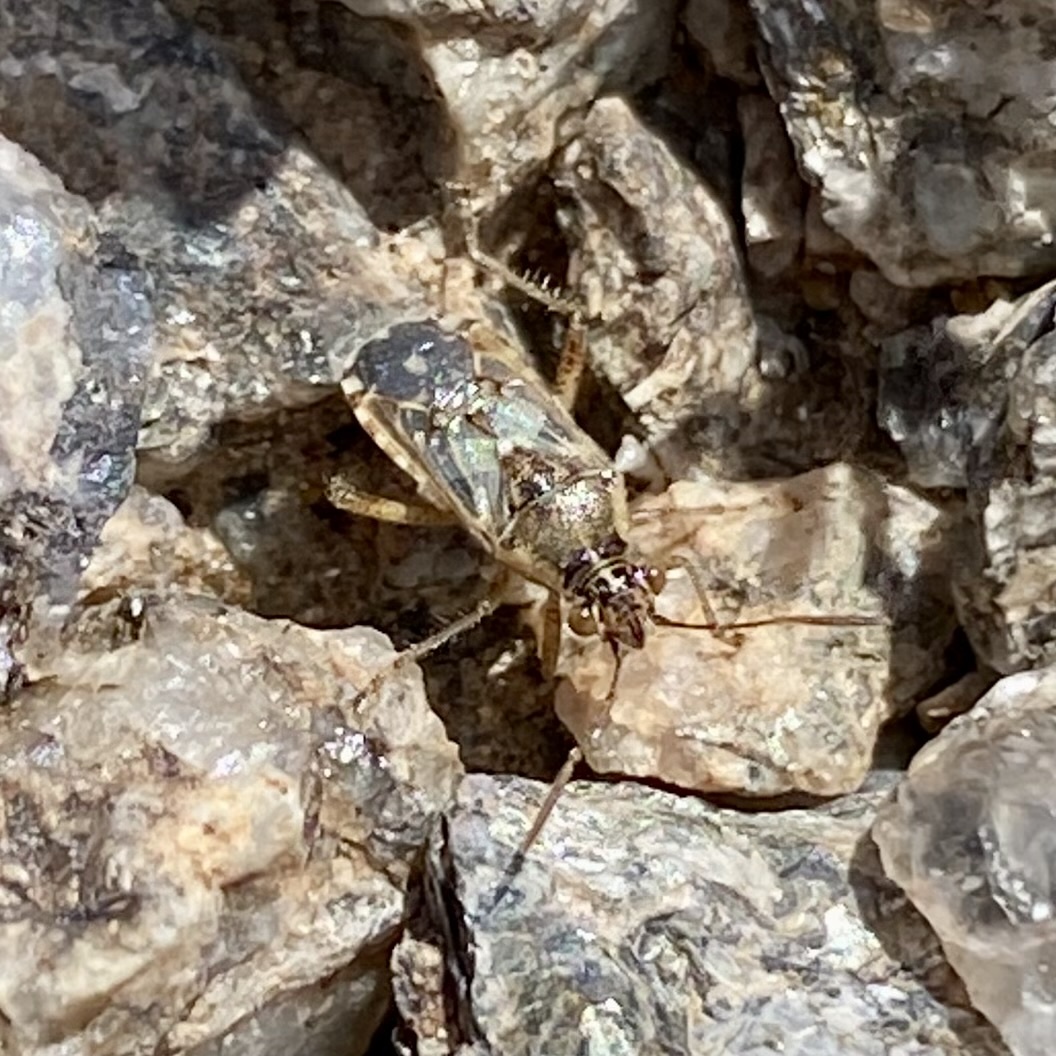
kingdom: Animalia
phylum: Arthropoda
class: Insecta
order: Hemiptera
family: Rhopalidae
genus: Liorhyssus
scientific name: Liorhyssus hyalinus
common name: Scentless plant bug
